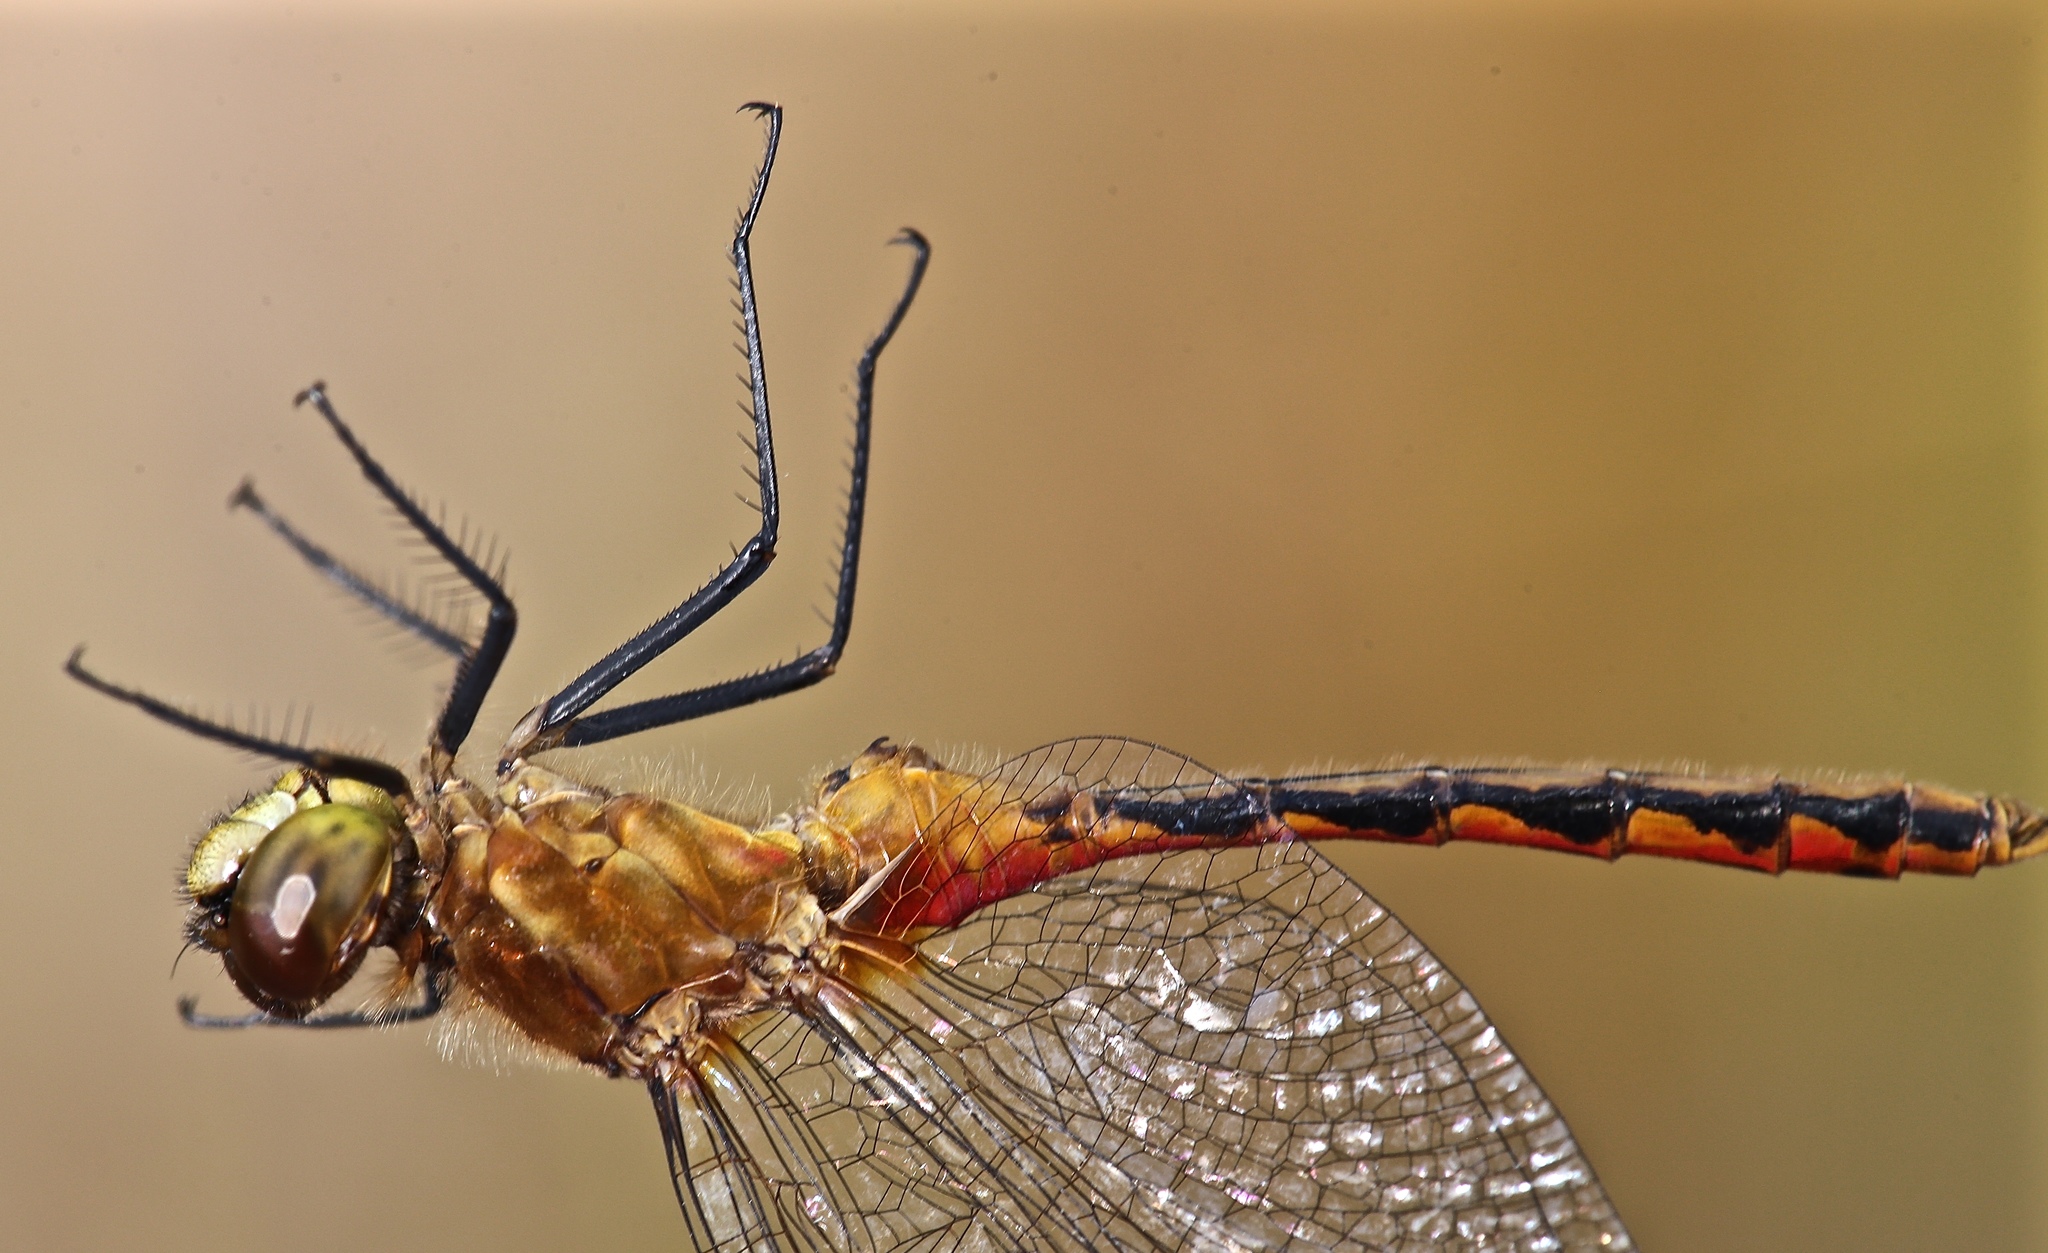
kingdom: Animalia
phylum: Arthropoda
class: Insecta
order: Odonata
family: Libellulidae
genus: Sympetrum
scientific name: Sympetrum internum
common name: Cherry-faced meadowhawk
